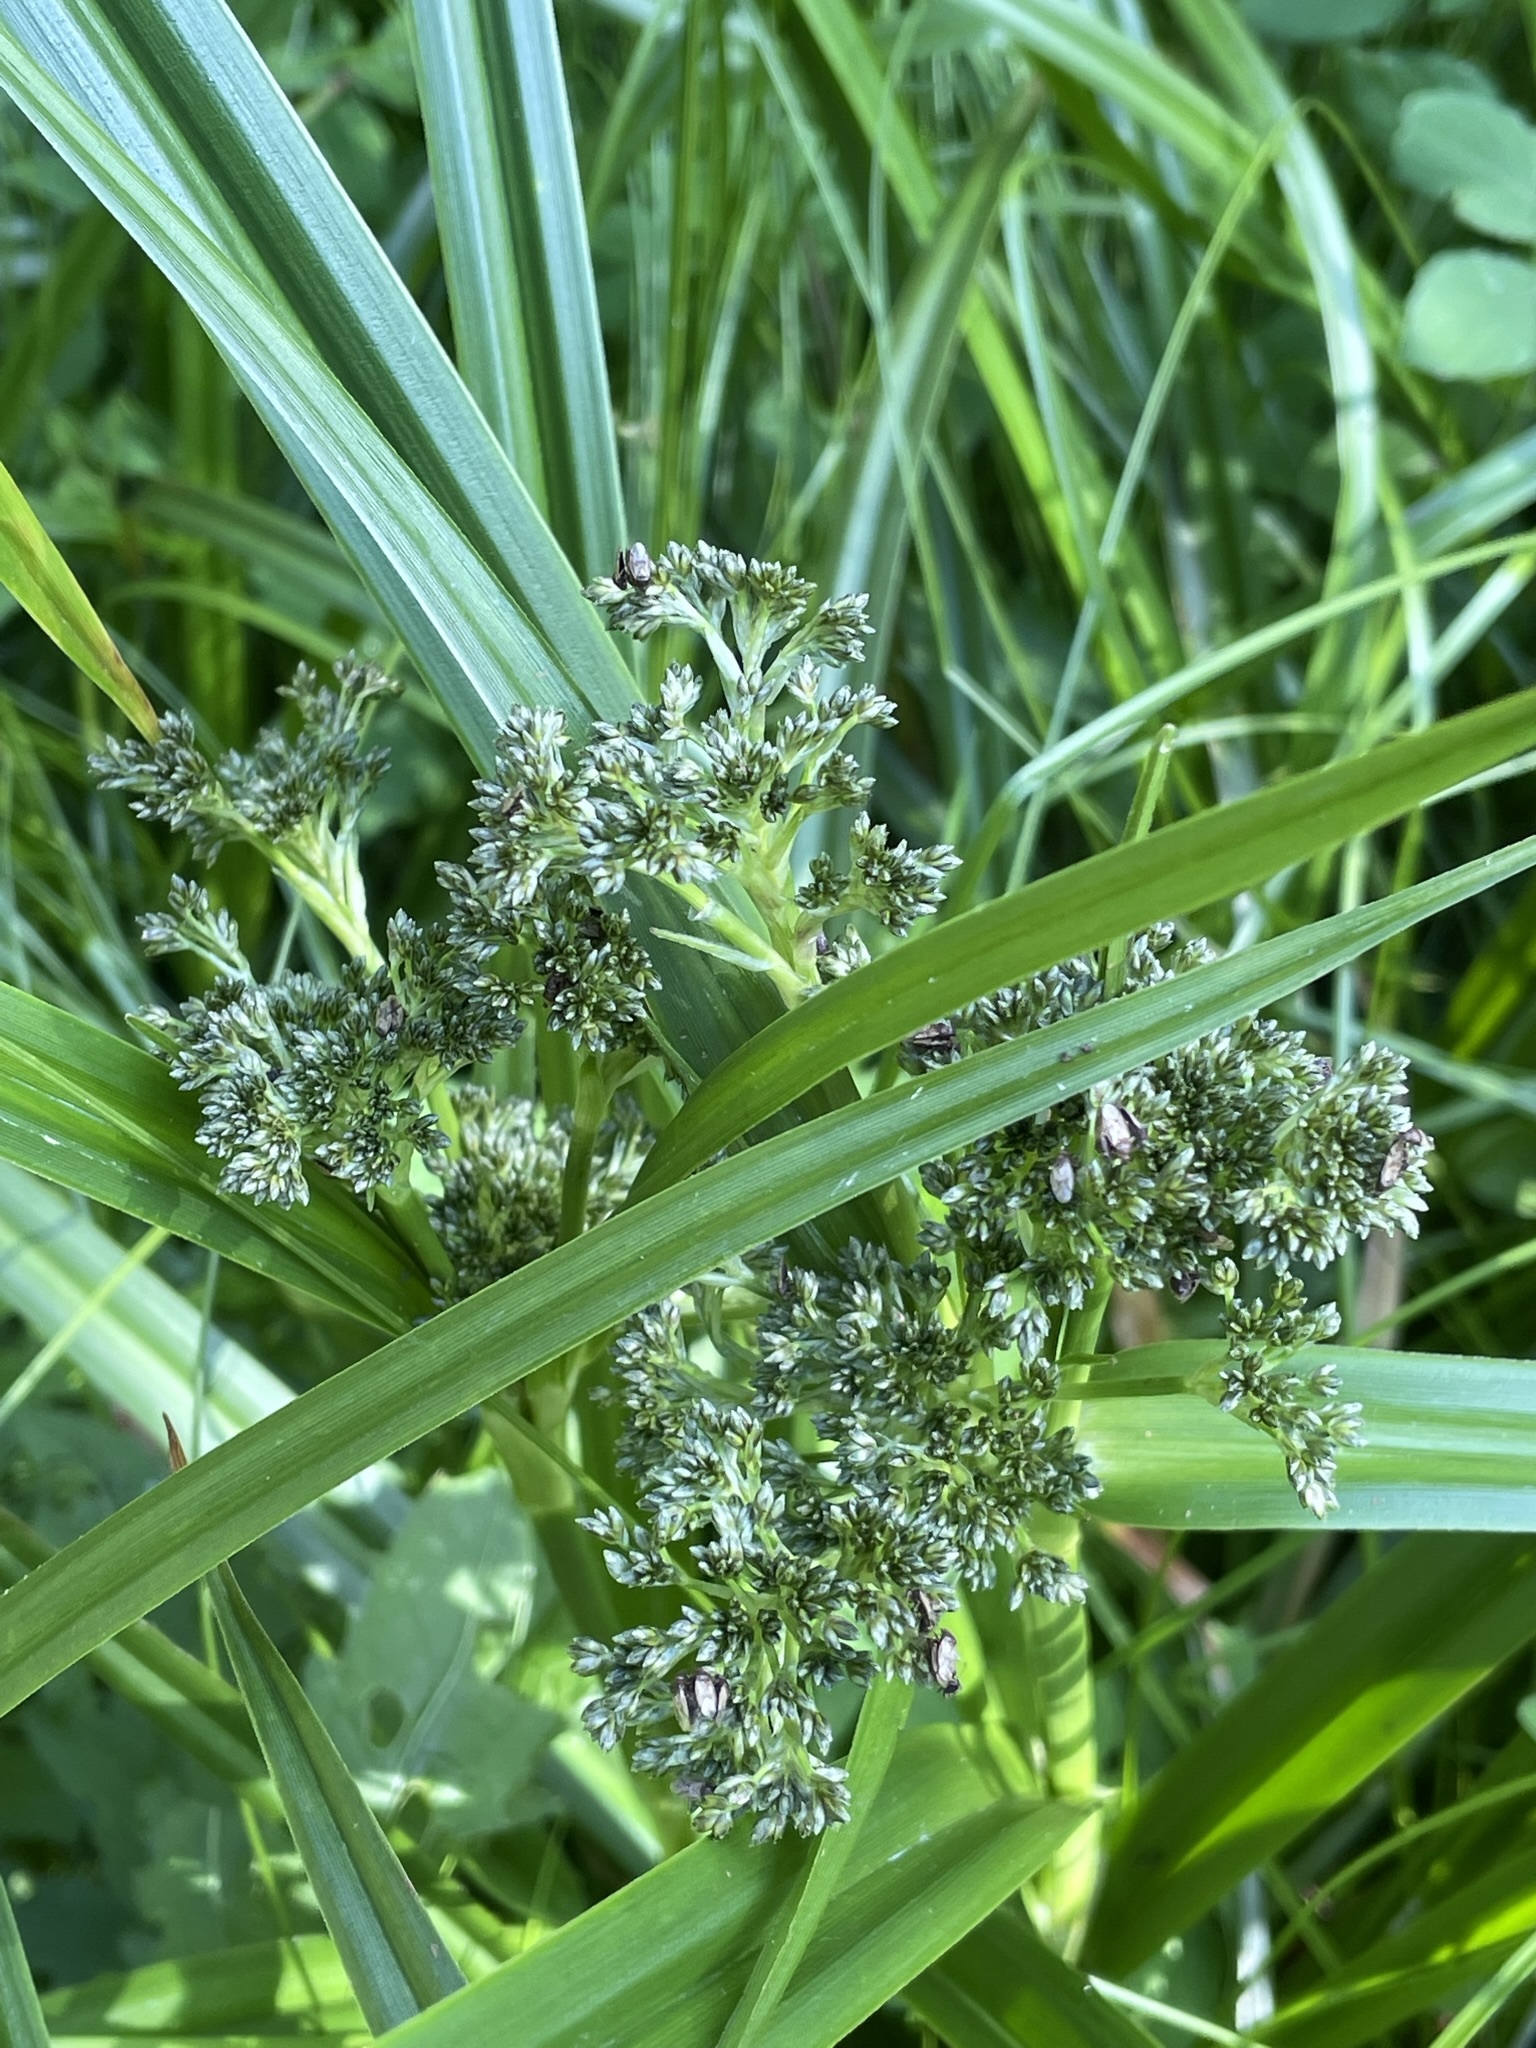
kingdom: Plantae
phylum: Tracheophyta
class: Liliopsida
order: Poales
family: Cyperaceae
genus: Scirpus
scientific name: Scirpus sylvaticus
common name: Wood club-rush
